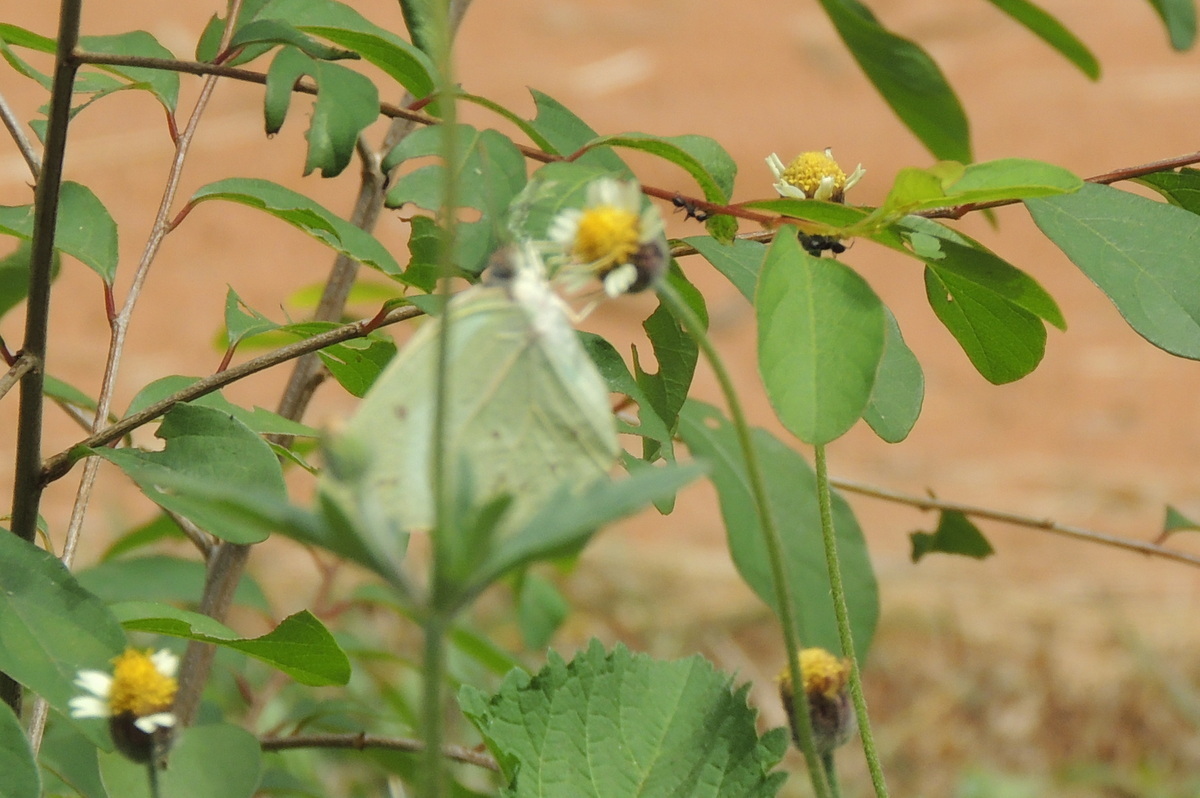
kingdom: Animalia
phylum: Arthropoda
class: Insecta
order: Lepidoptera
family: Pieridae
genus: Catopsilia
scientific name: Catopsilia florella
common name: African migrant
